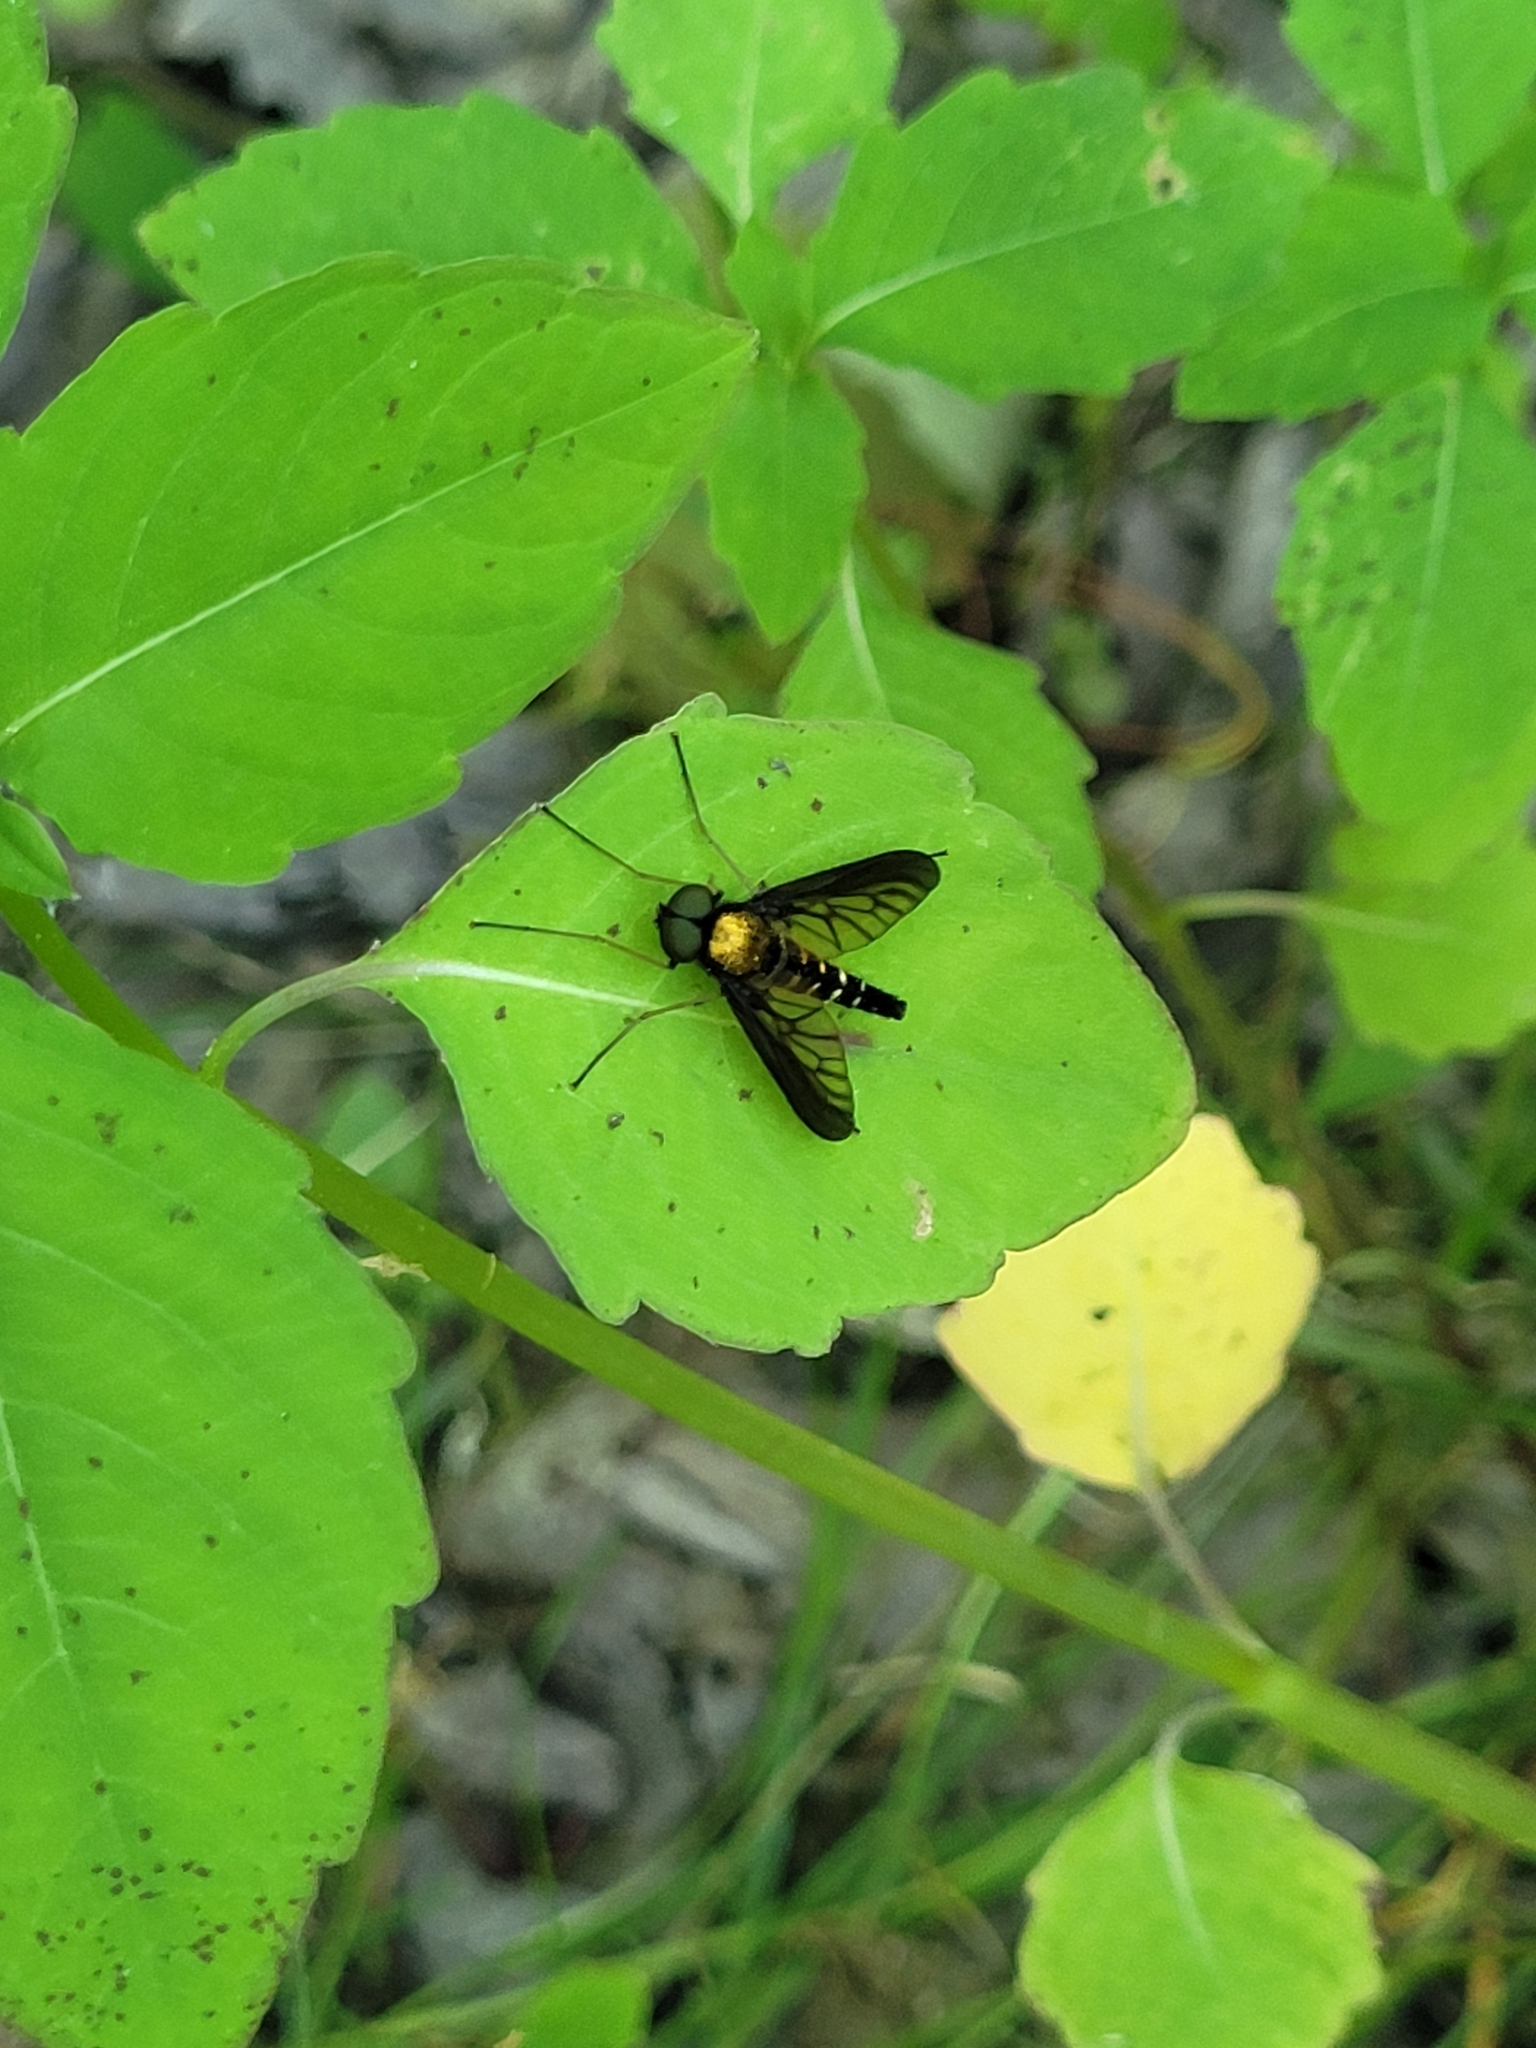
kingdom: Animalia
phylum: Arthropoda
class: Insecta
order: Diptera
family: Rhagionidae
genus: Chrysopilus
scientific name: Chrysopilus thoracicus
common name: Golden-backed snipe fly
